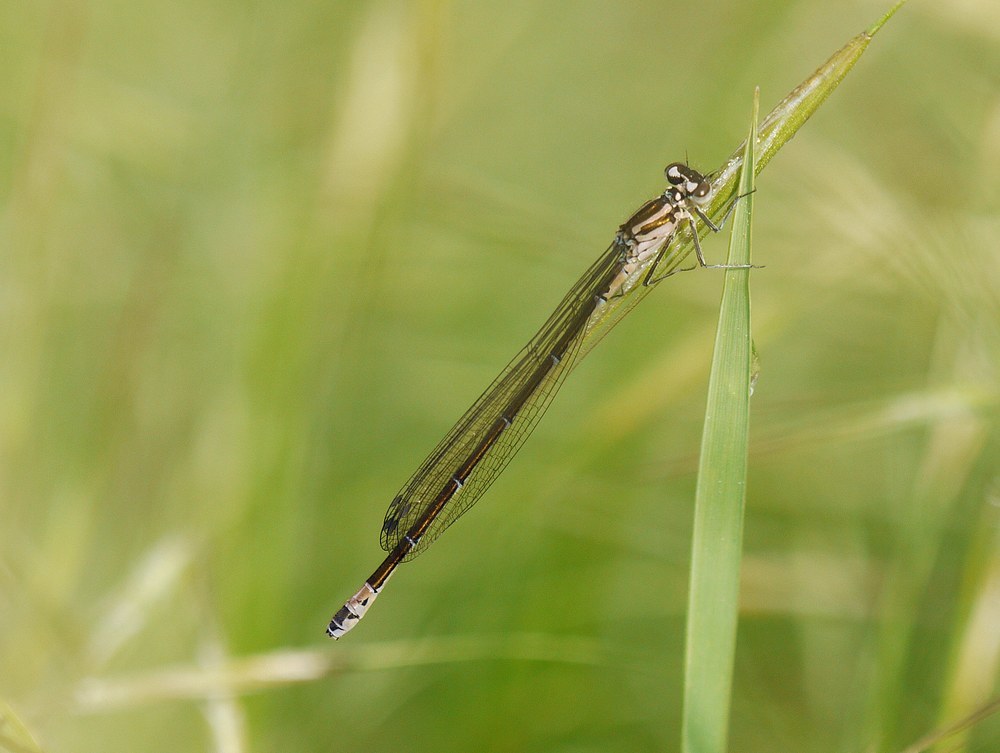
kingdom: Animalia
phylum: Arthropoda
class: Insecta
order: Odonata
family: Coenagrionidae
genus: Coenagrion
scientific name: Coenagrion pulchellum
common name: Variable bluet
